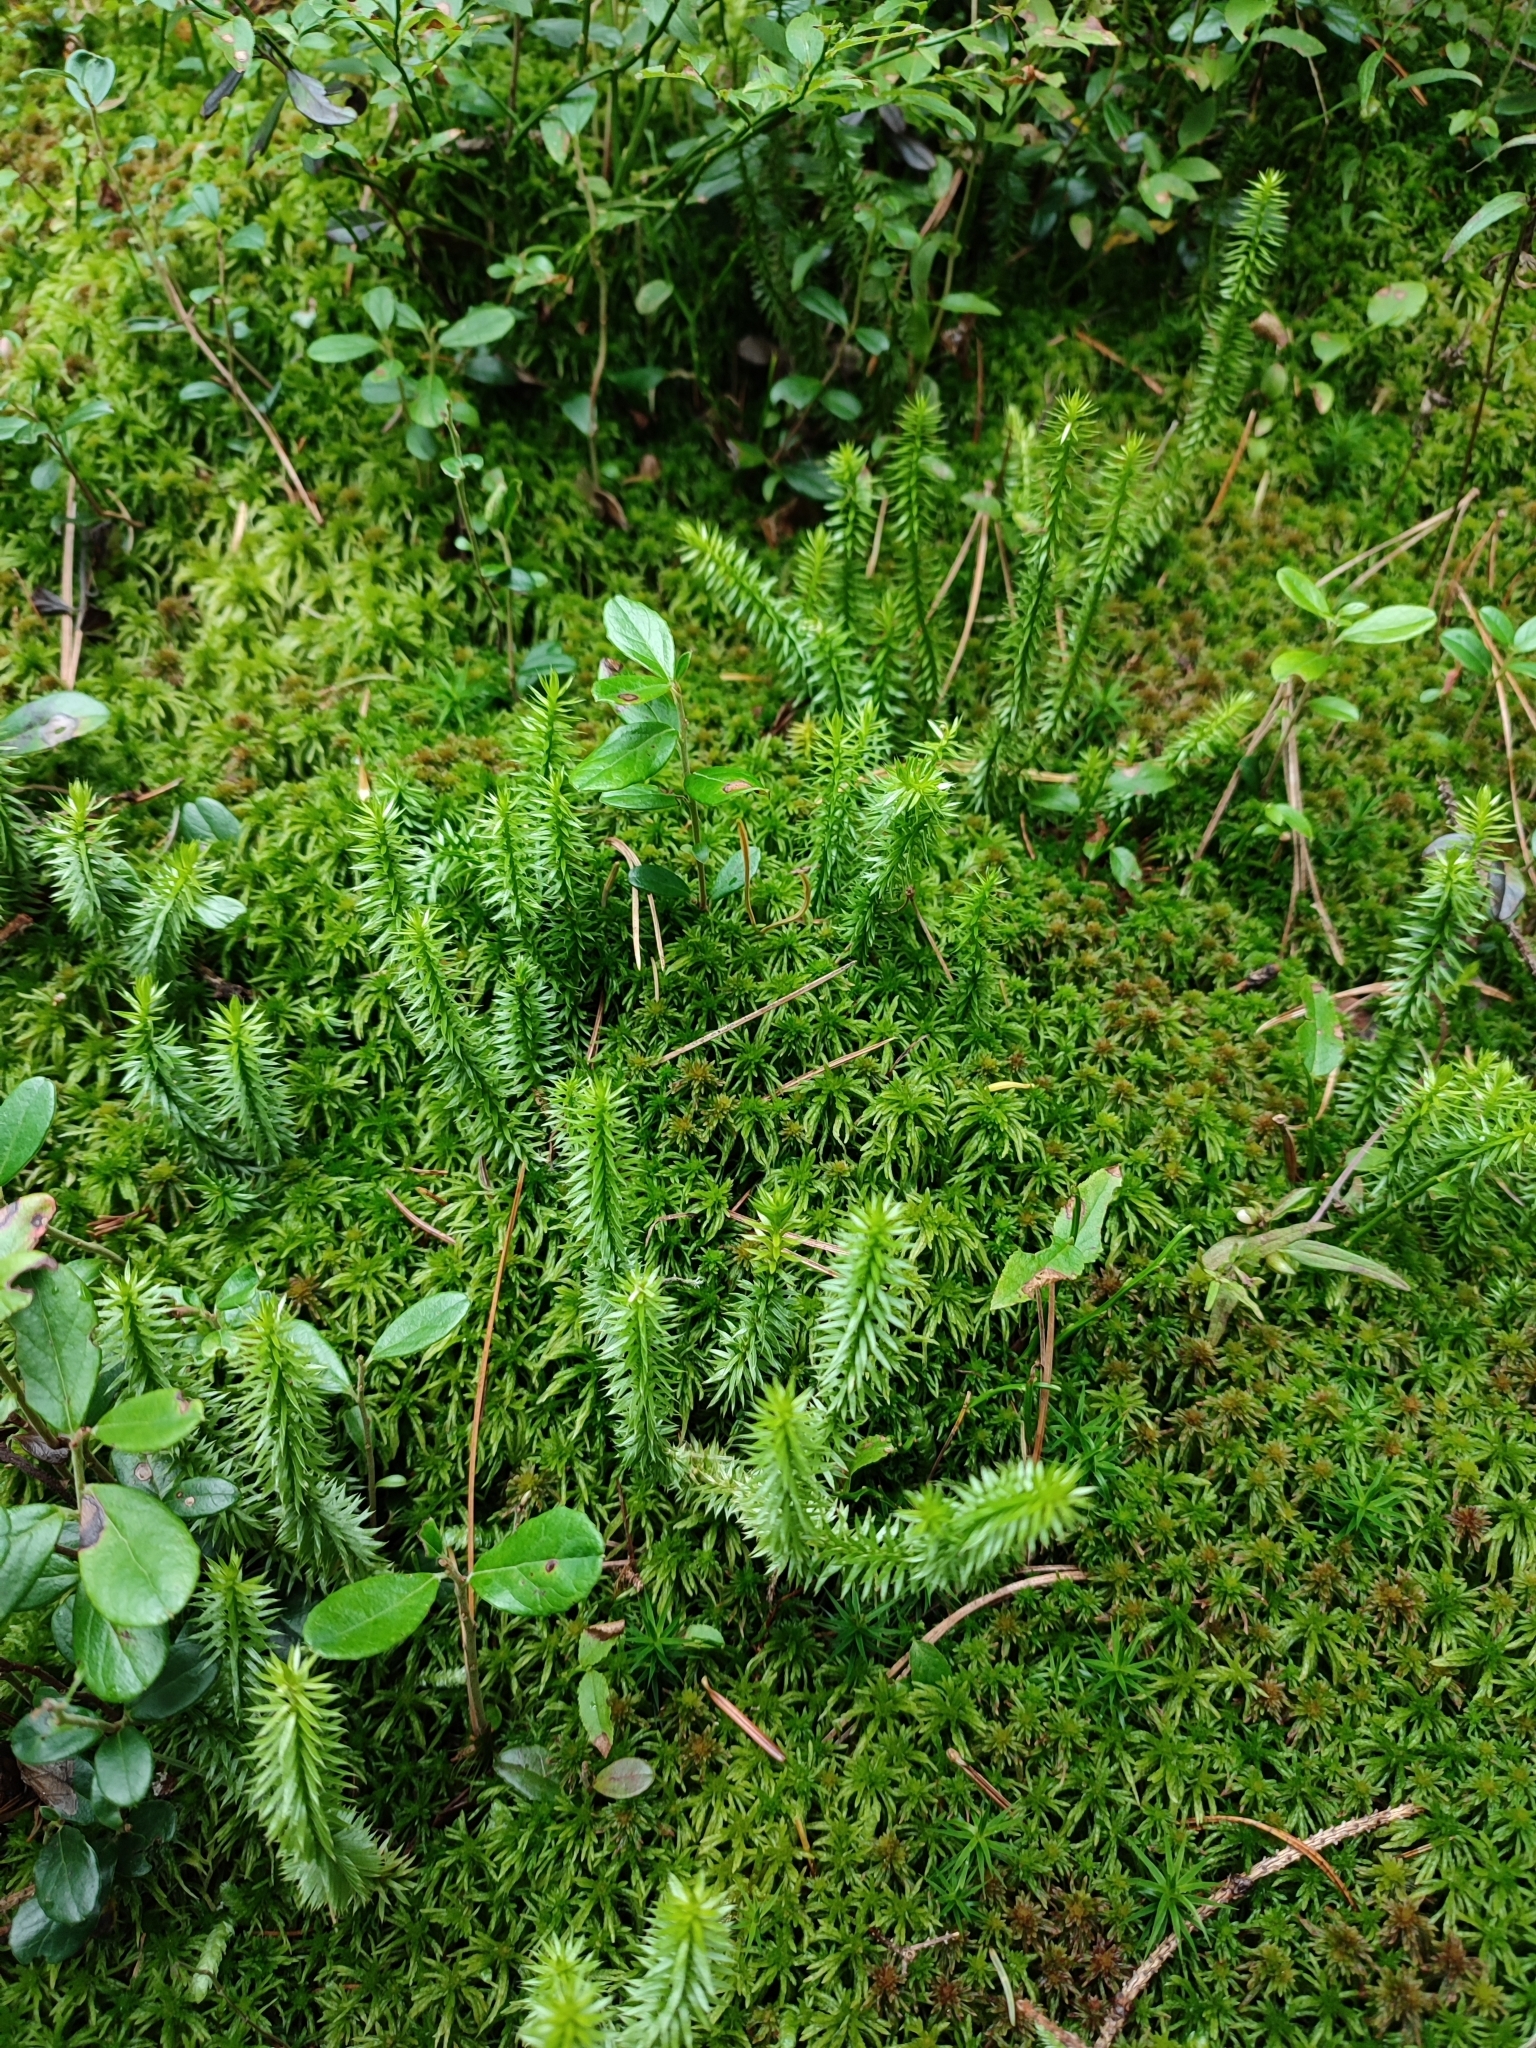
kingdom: Plantae
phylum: Tracheophyta
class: Lycopodiopsida
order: Lycopodiales
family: Lycopodiaceae
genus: Spinulum
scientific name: Spinulum annotinum
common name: Interrupted club-moss
